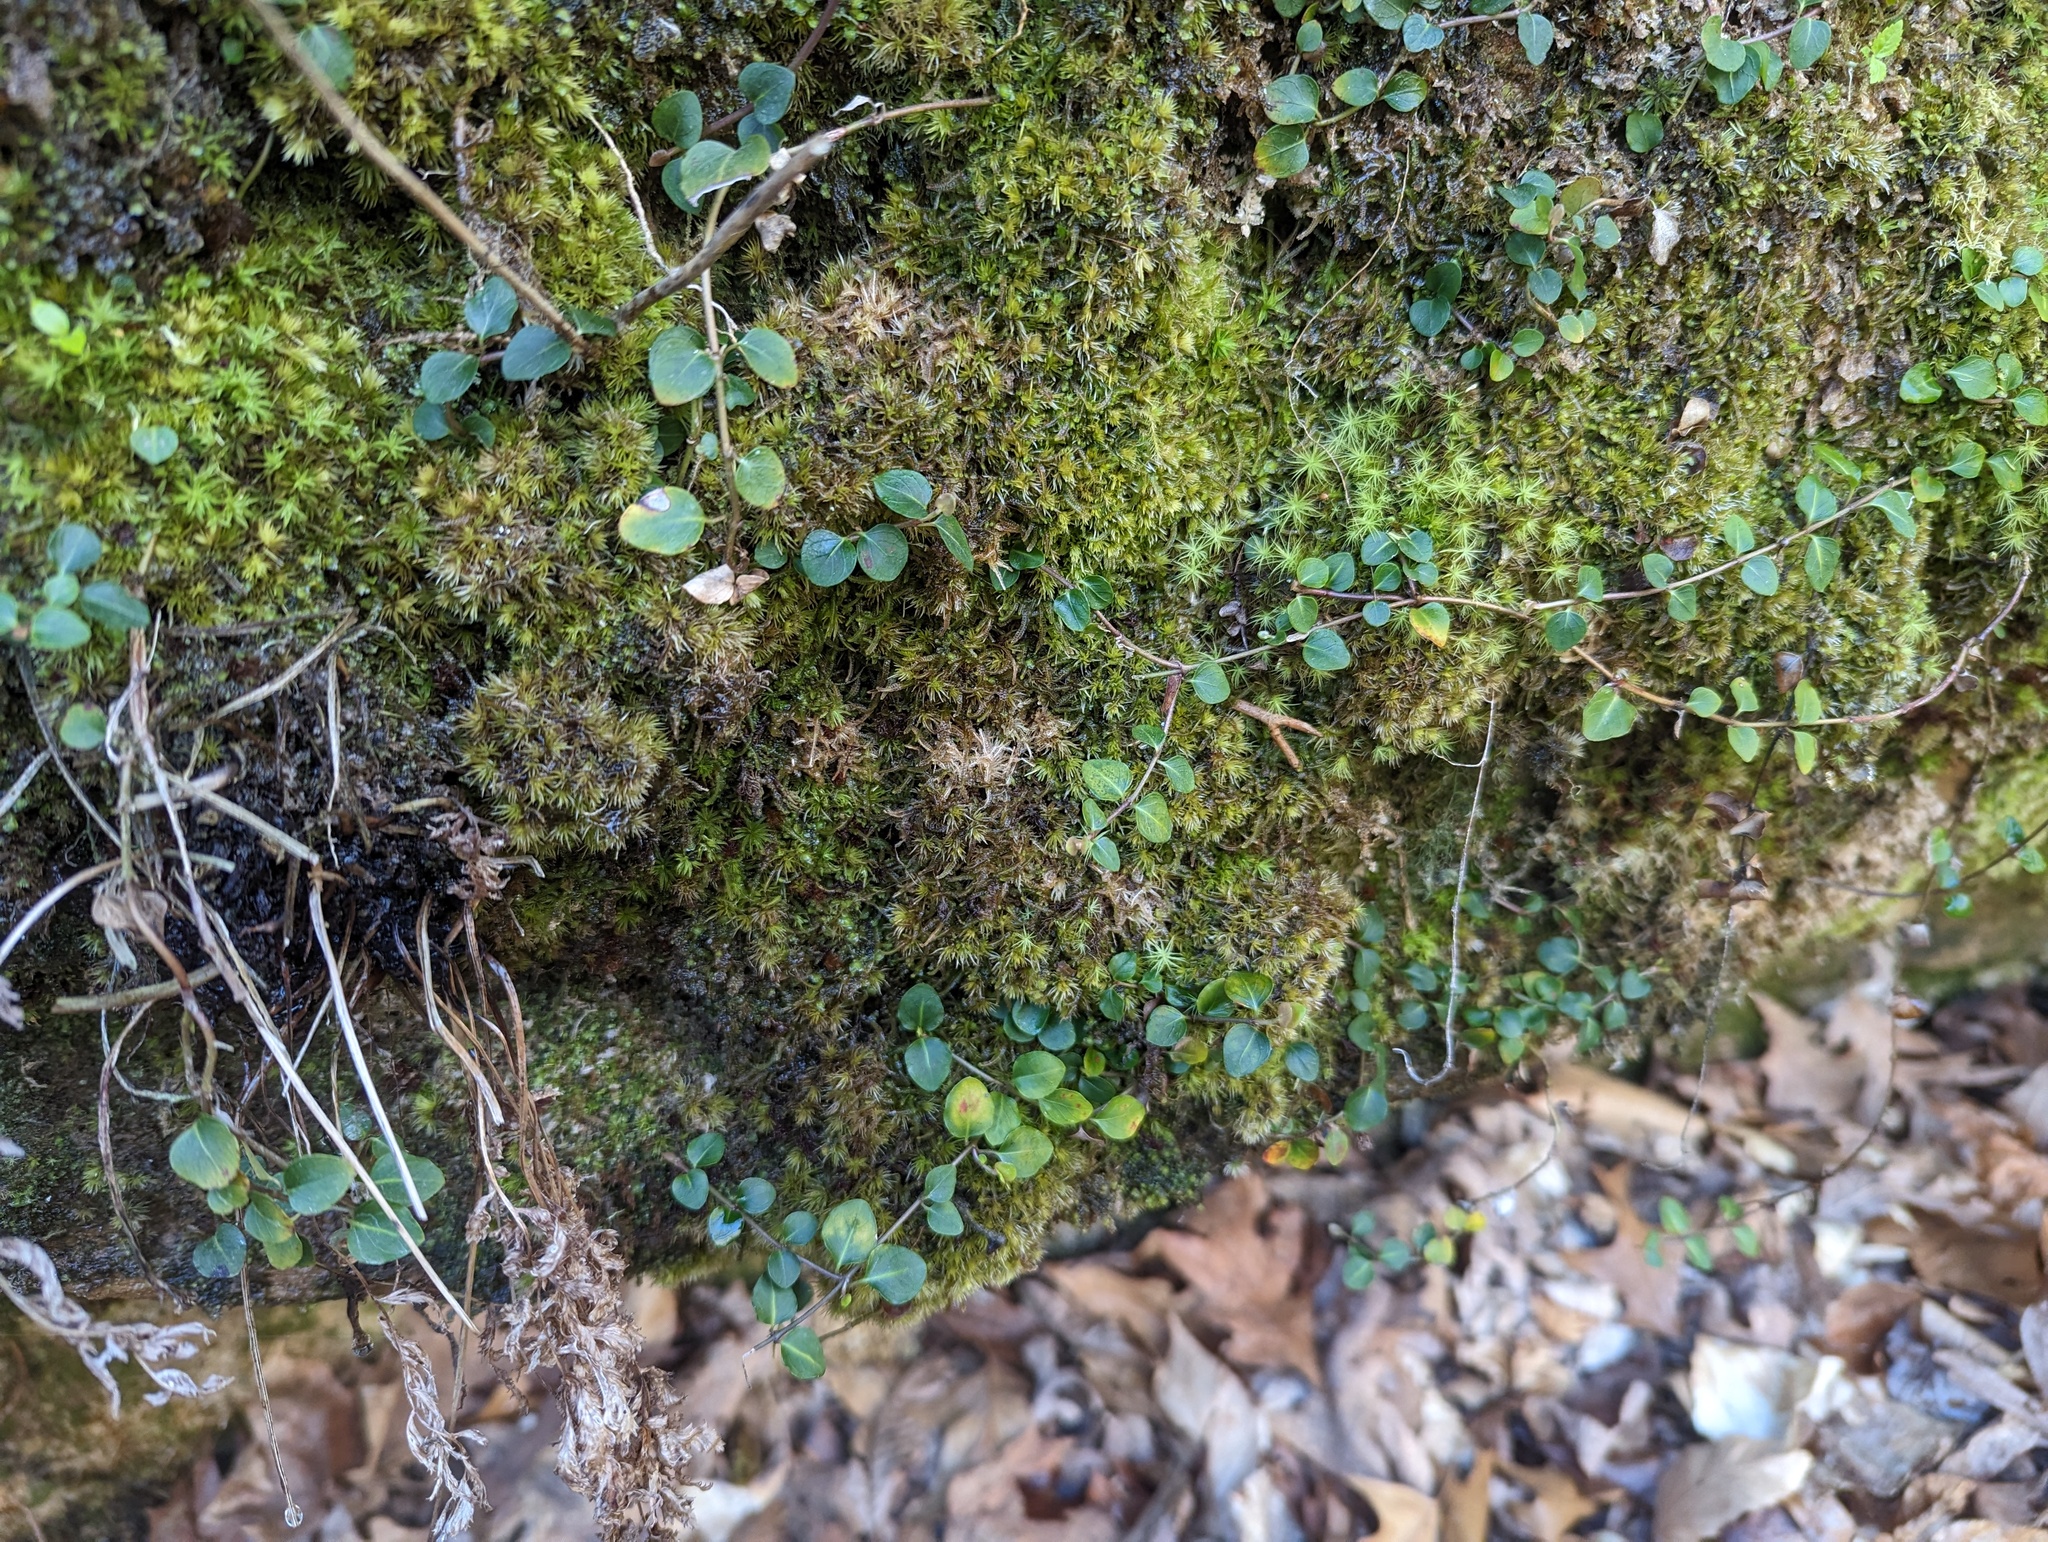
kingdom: Plantae
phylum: Tracheophyta
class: Magnoliopsida
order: Gentianales
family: Rubiaceae
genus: Mitchella
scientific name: Mitchella repens
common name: Partridge-berry
